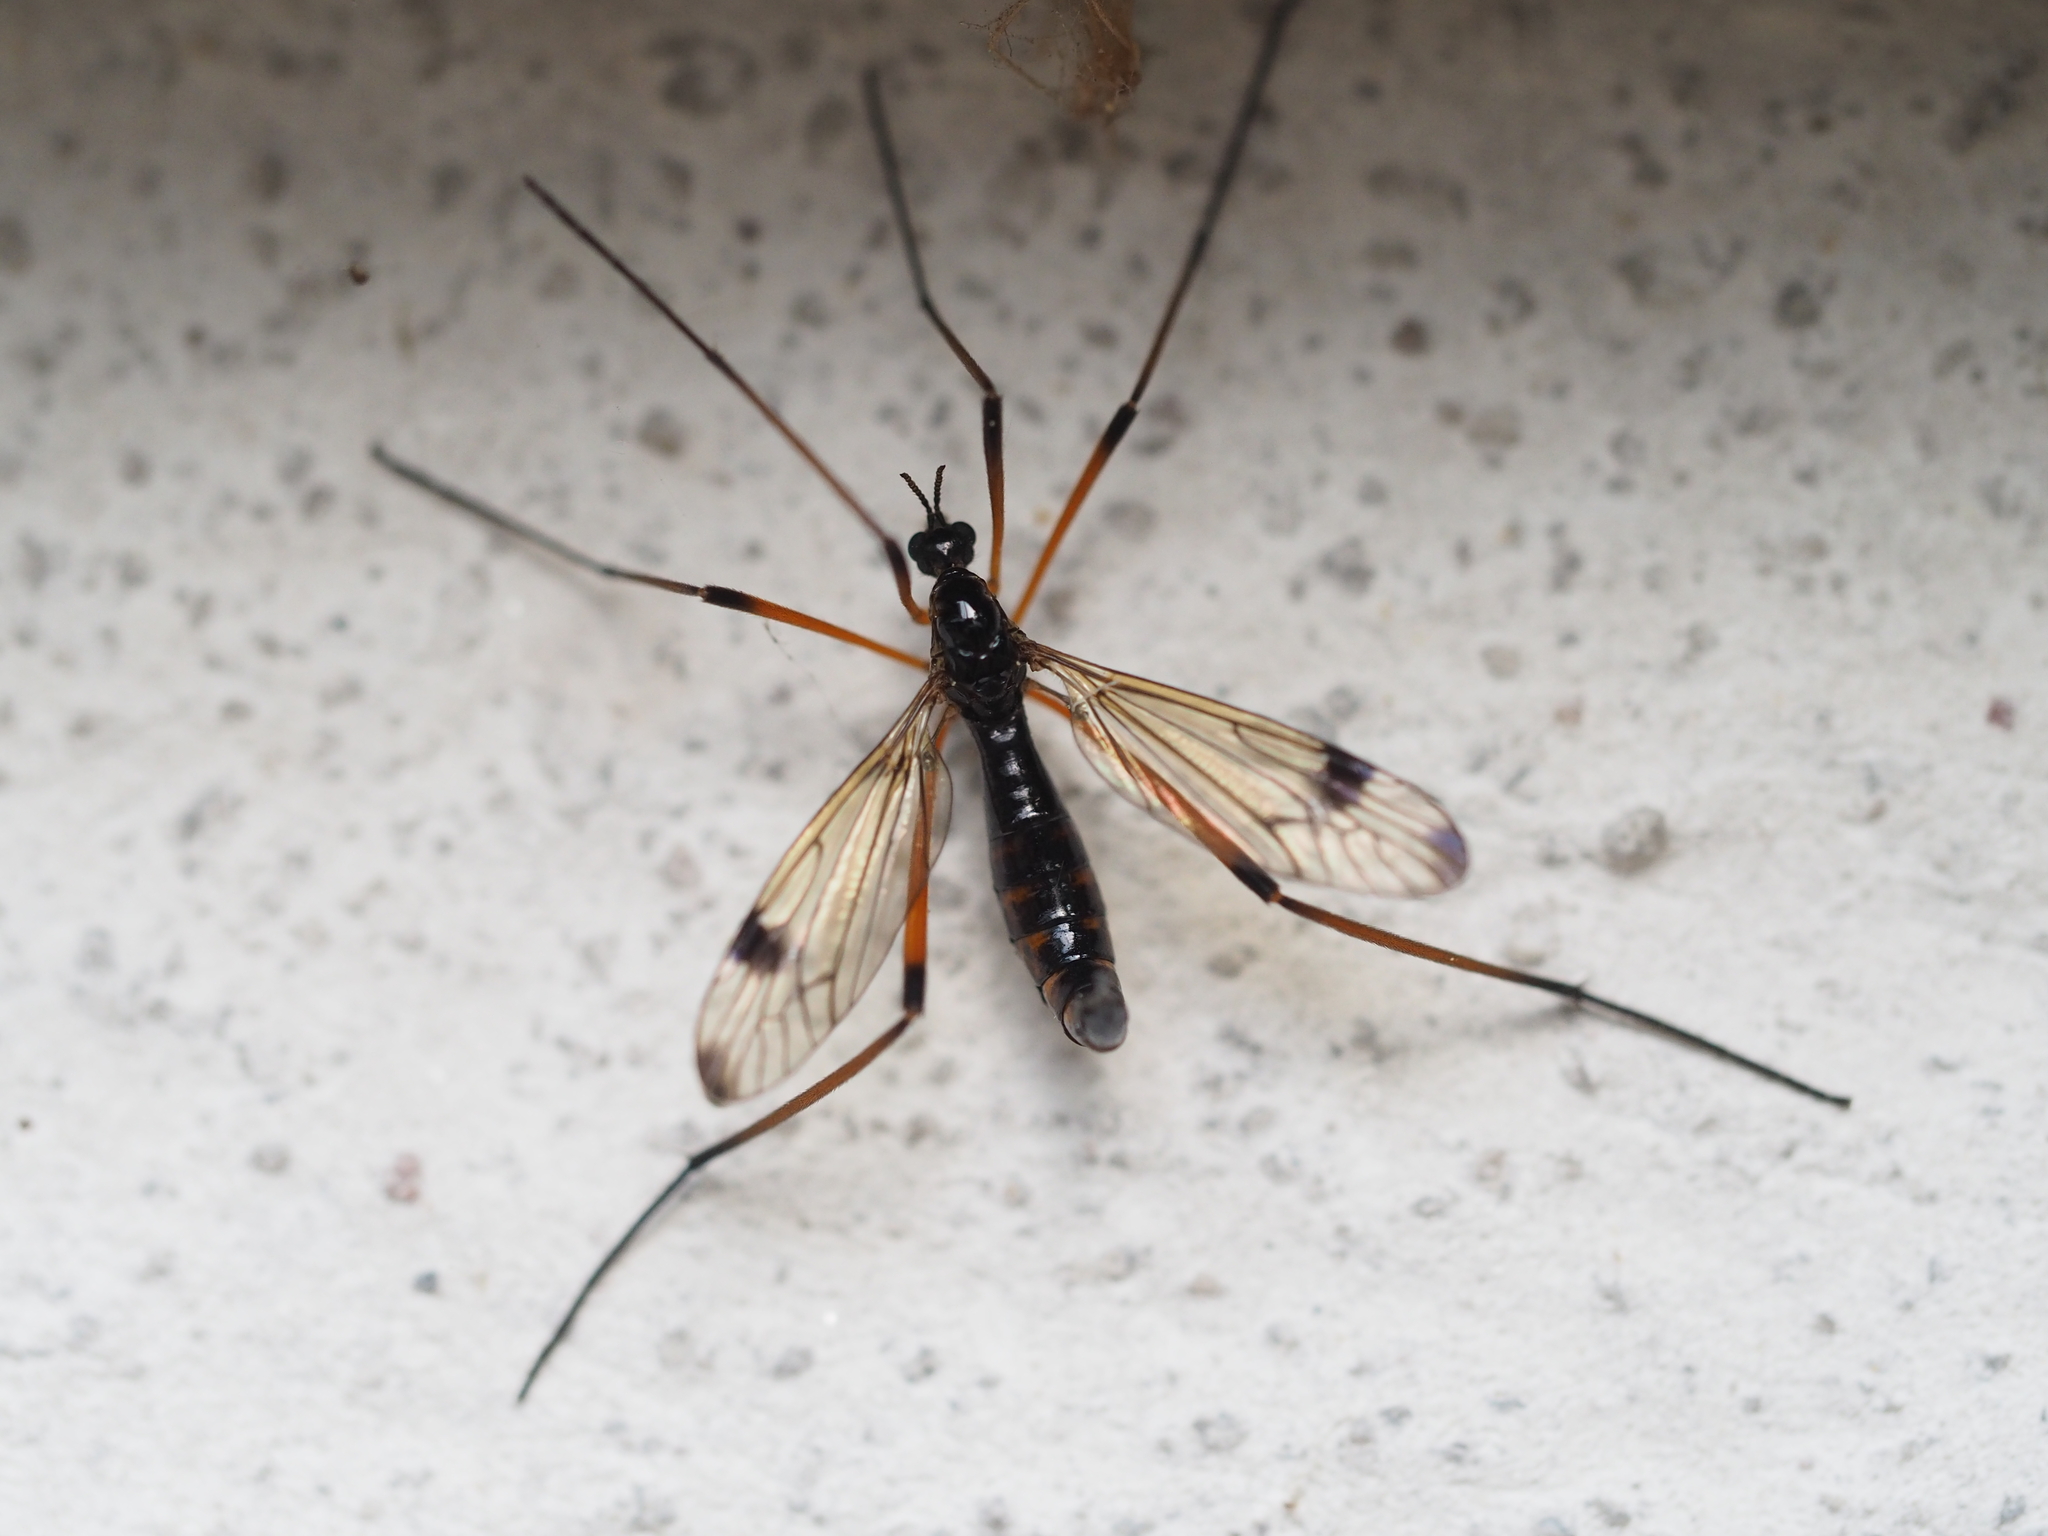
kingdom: Animalia
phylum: Arthropoda
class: Insecta
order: Diptera
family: Tipulidae
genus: Dictenidia
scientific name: Dictenidia bimaculata
